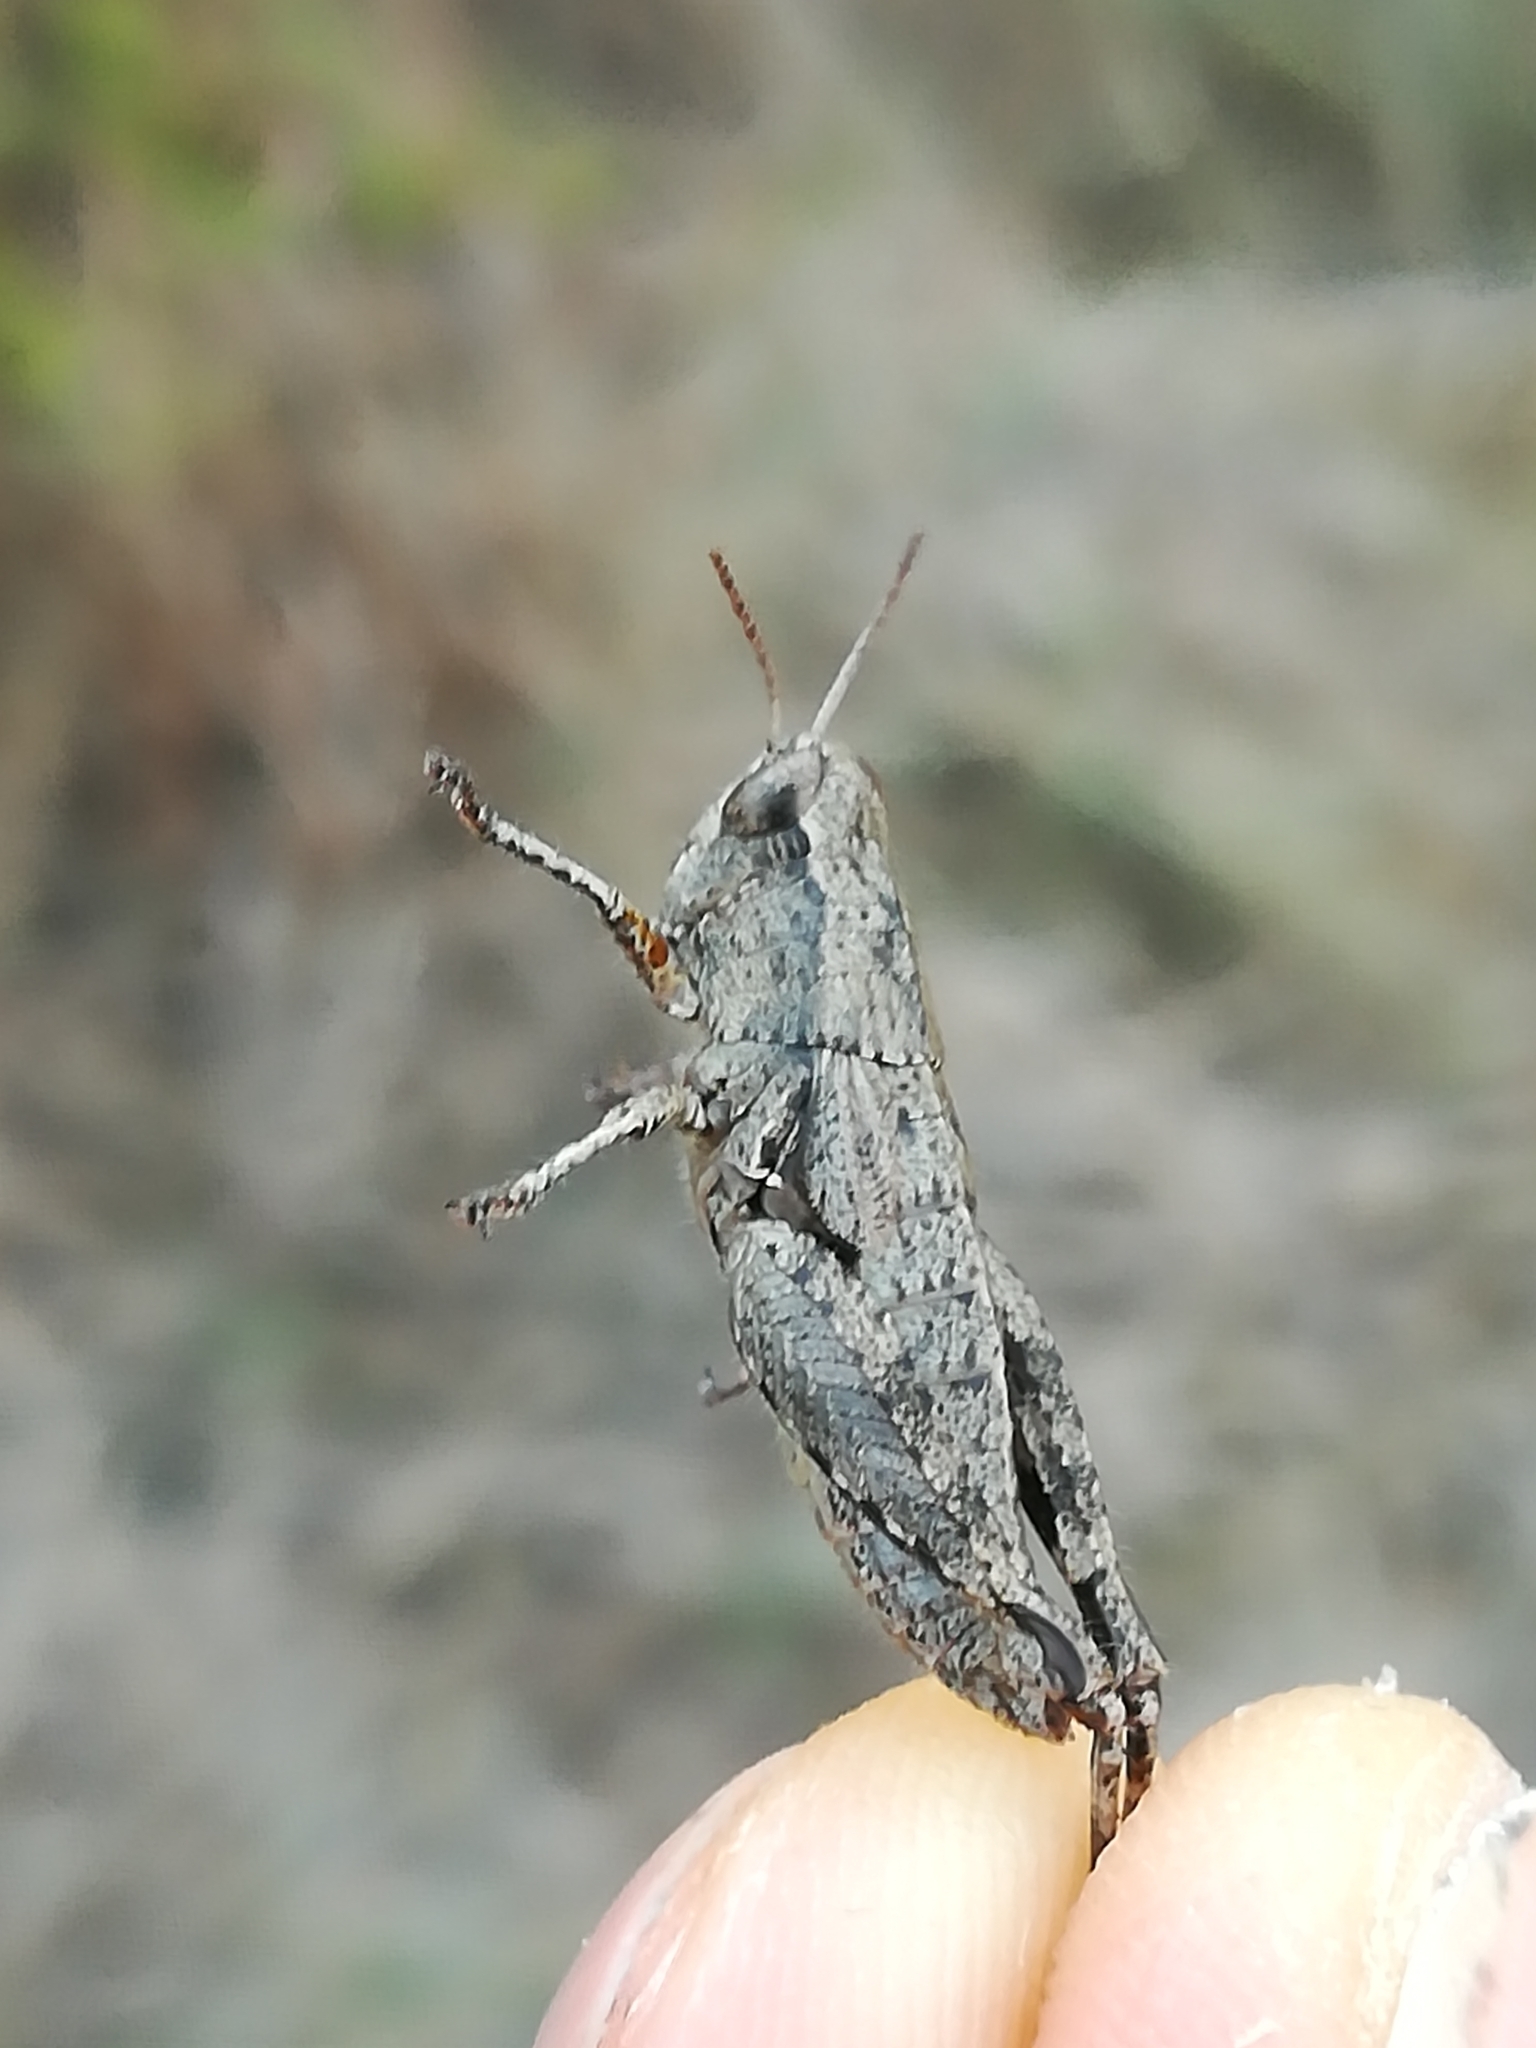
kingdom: Animalia
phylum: Arthropoda
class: Insecta
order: Orthoptera
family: Acrididae
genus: Pezotettix
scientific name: Pezotettix giornae
